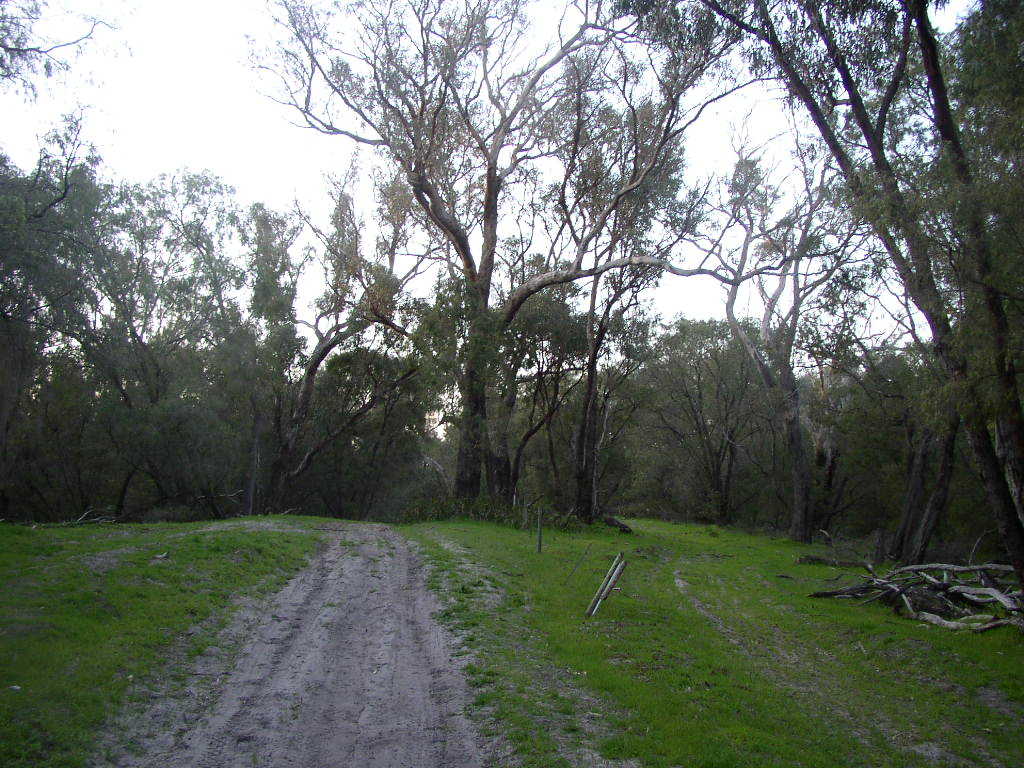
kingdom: Plantae
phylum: Tracheophyta
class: Magnoliopsida
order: Myrtales
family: Myrtaceae
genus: Eucalyptus
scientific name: Eucalyptus gomphocephala
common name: Tuart
